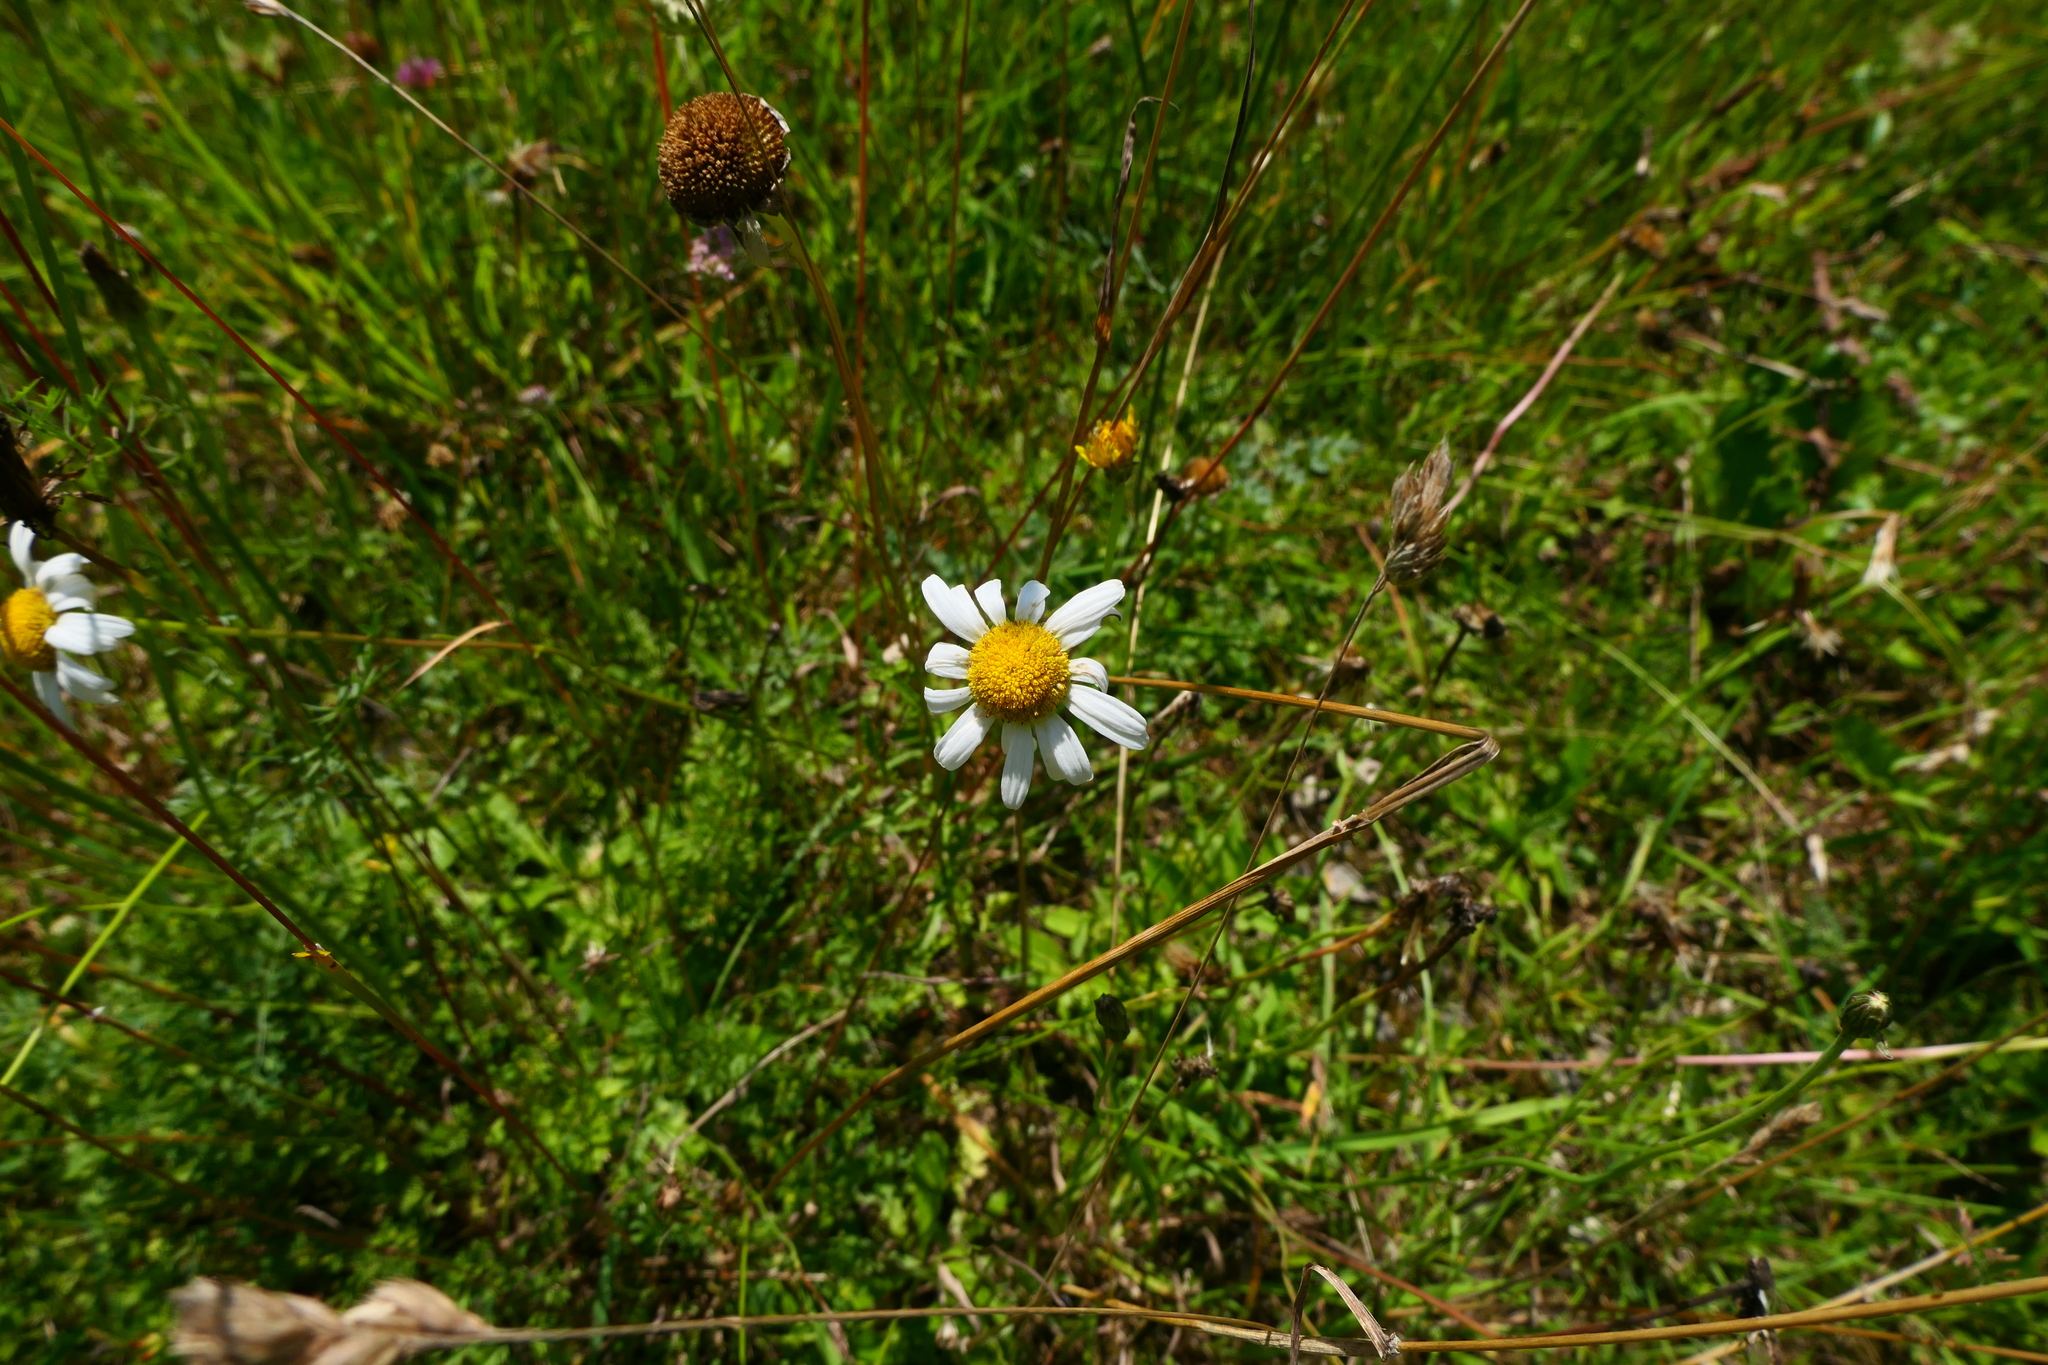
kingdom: Plantae
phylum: Tracheophyta
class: Magnoliopsida
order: Asterales
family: Asteraceae
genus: Leucanthemum
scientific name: Leucanthemum vulgare
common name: Oxeye daisy
